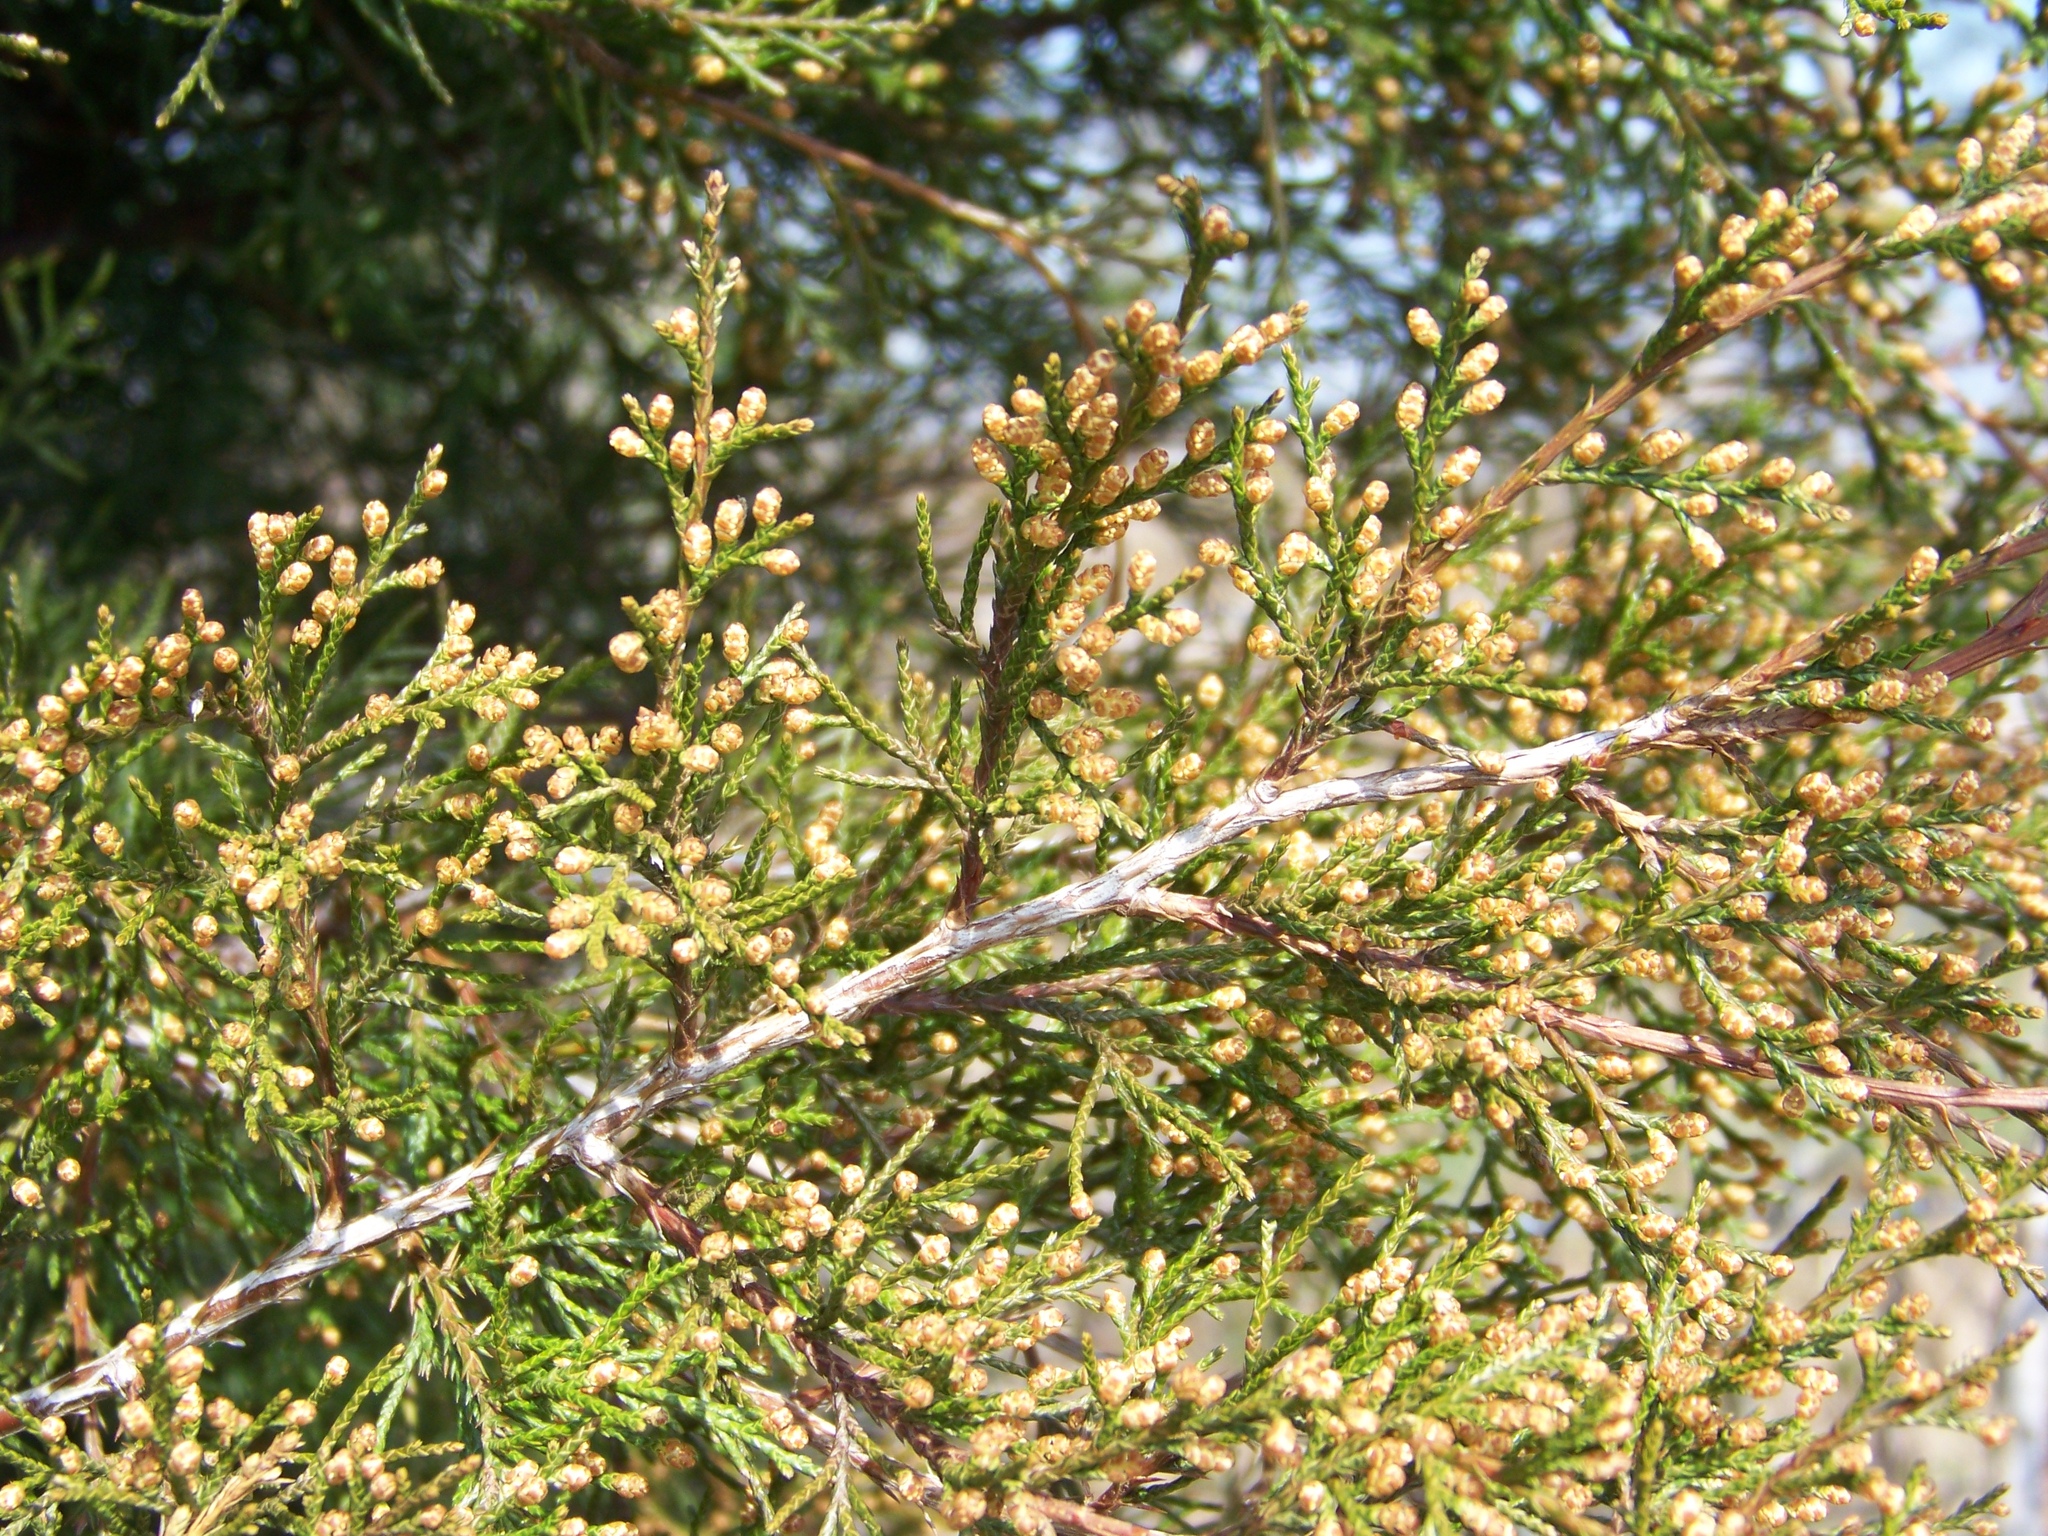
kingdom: Plantae
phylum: Tracheophyta
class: Pinopsida
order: Pinales
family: Cupressaceae
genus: Juniperus
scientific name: Juniperus virginiana
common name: Red juniper
